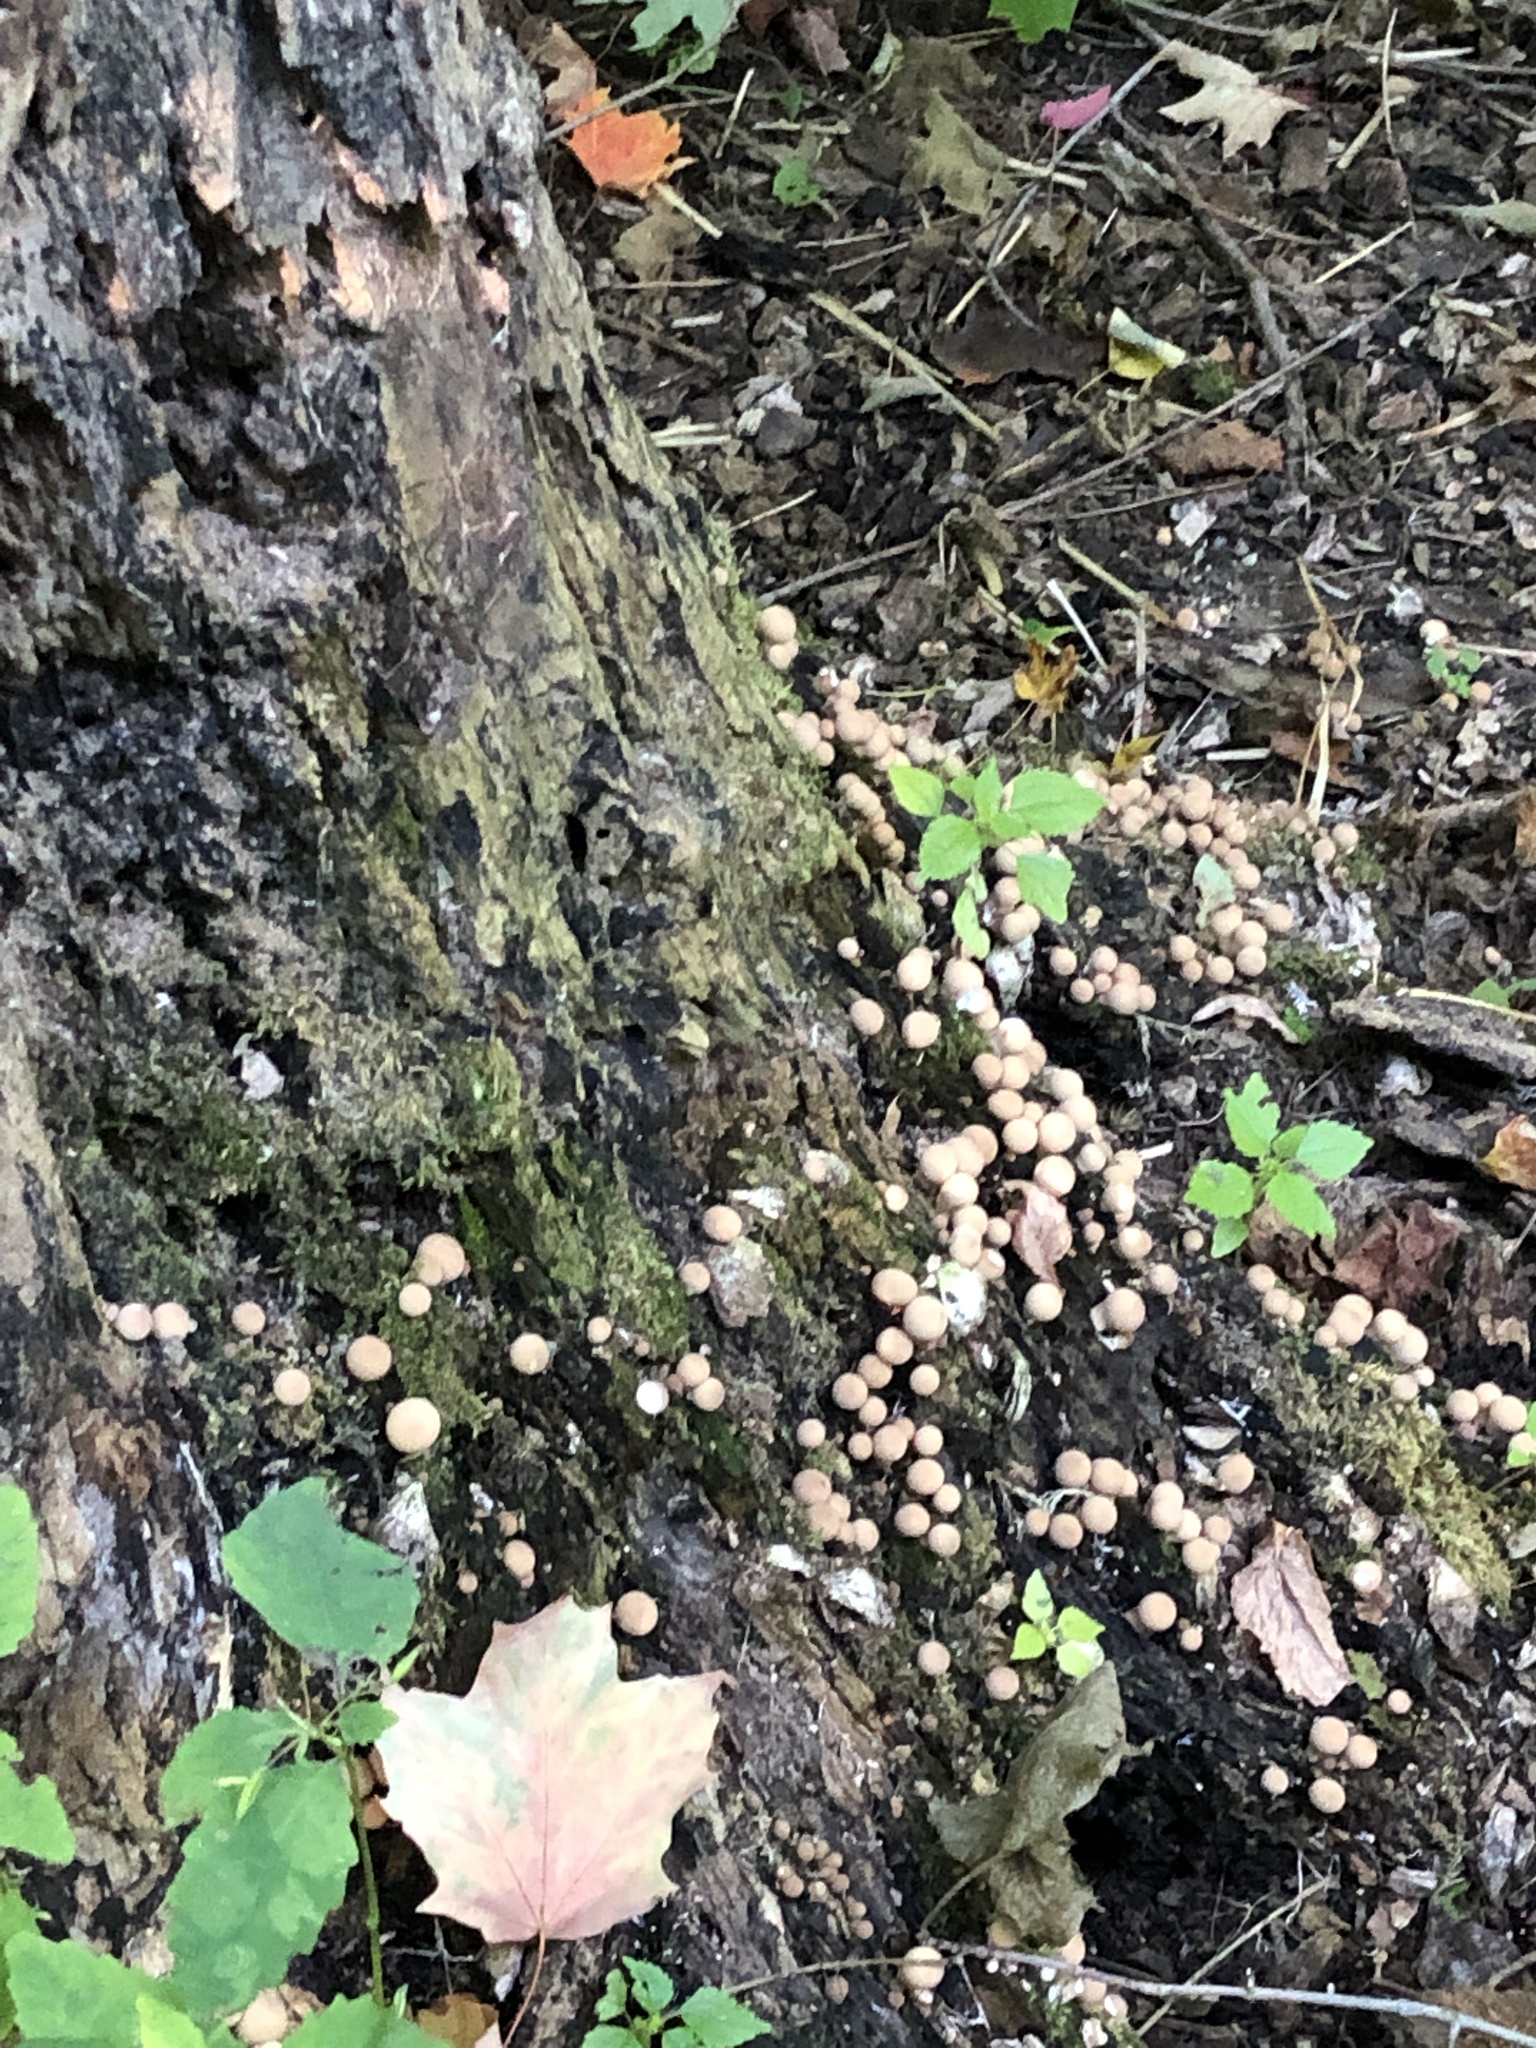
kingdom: Fungi
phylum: Basidiomycota
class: Agaricomycetes
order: Agaricales
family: Lycoperdaceae
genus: Apioperdon
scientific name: Apioperdon pyriforme
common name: Pear-shaped puffball
